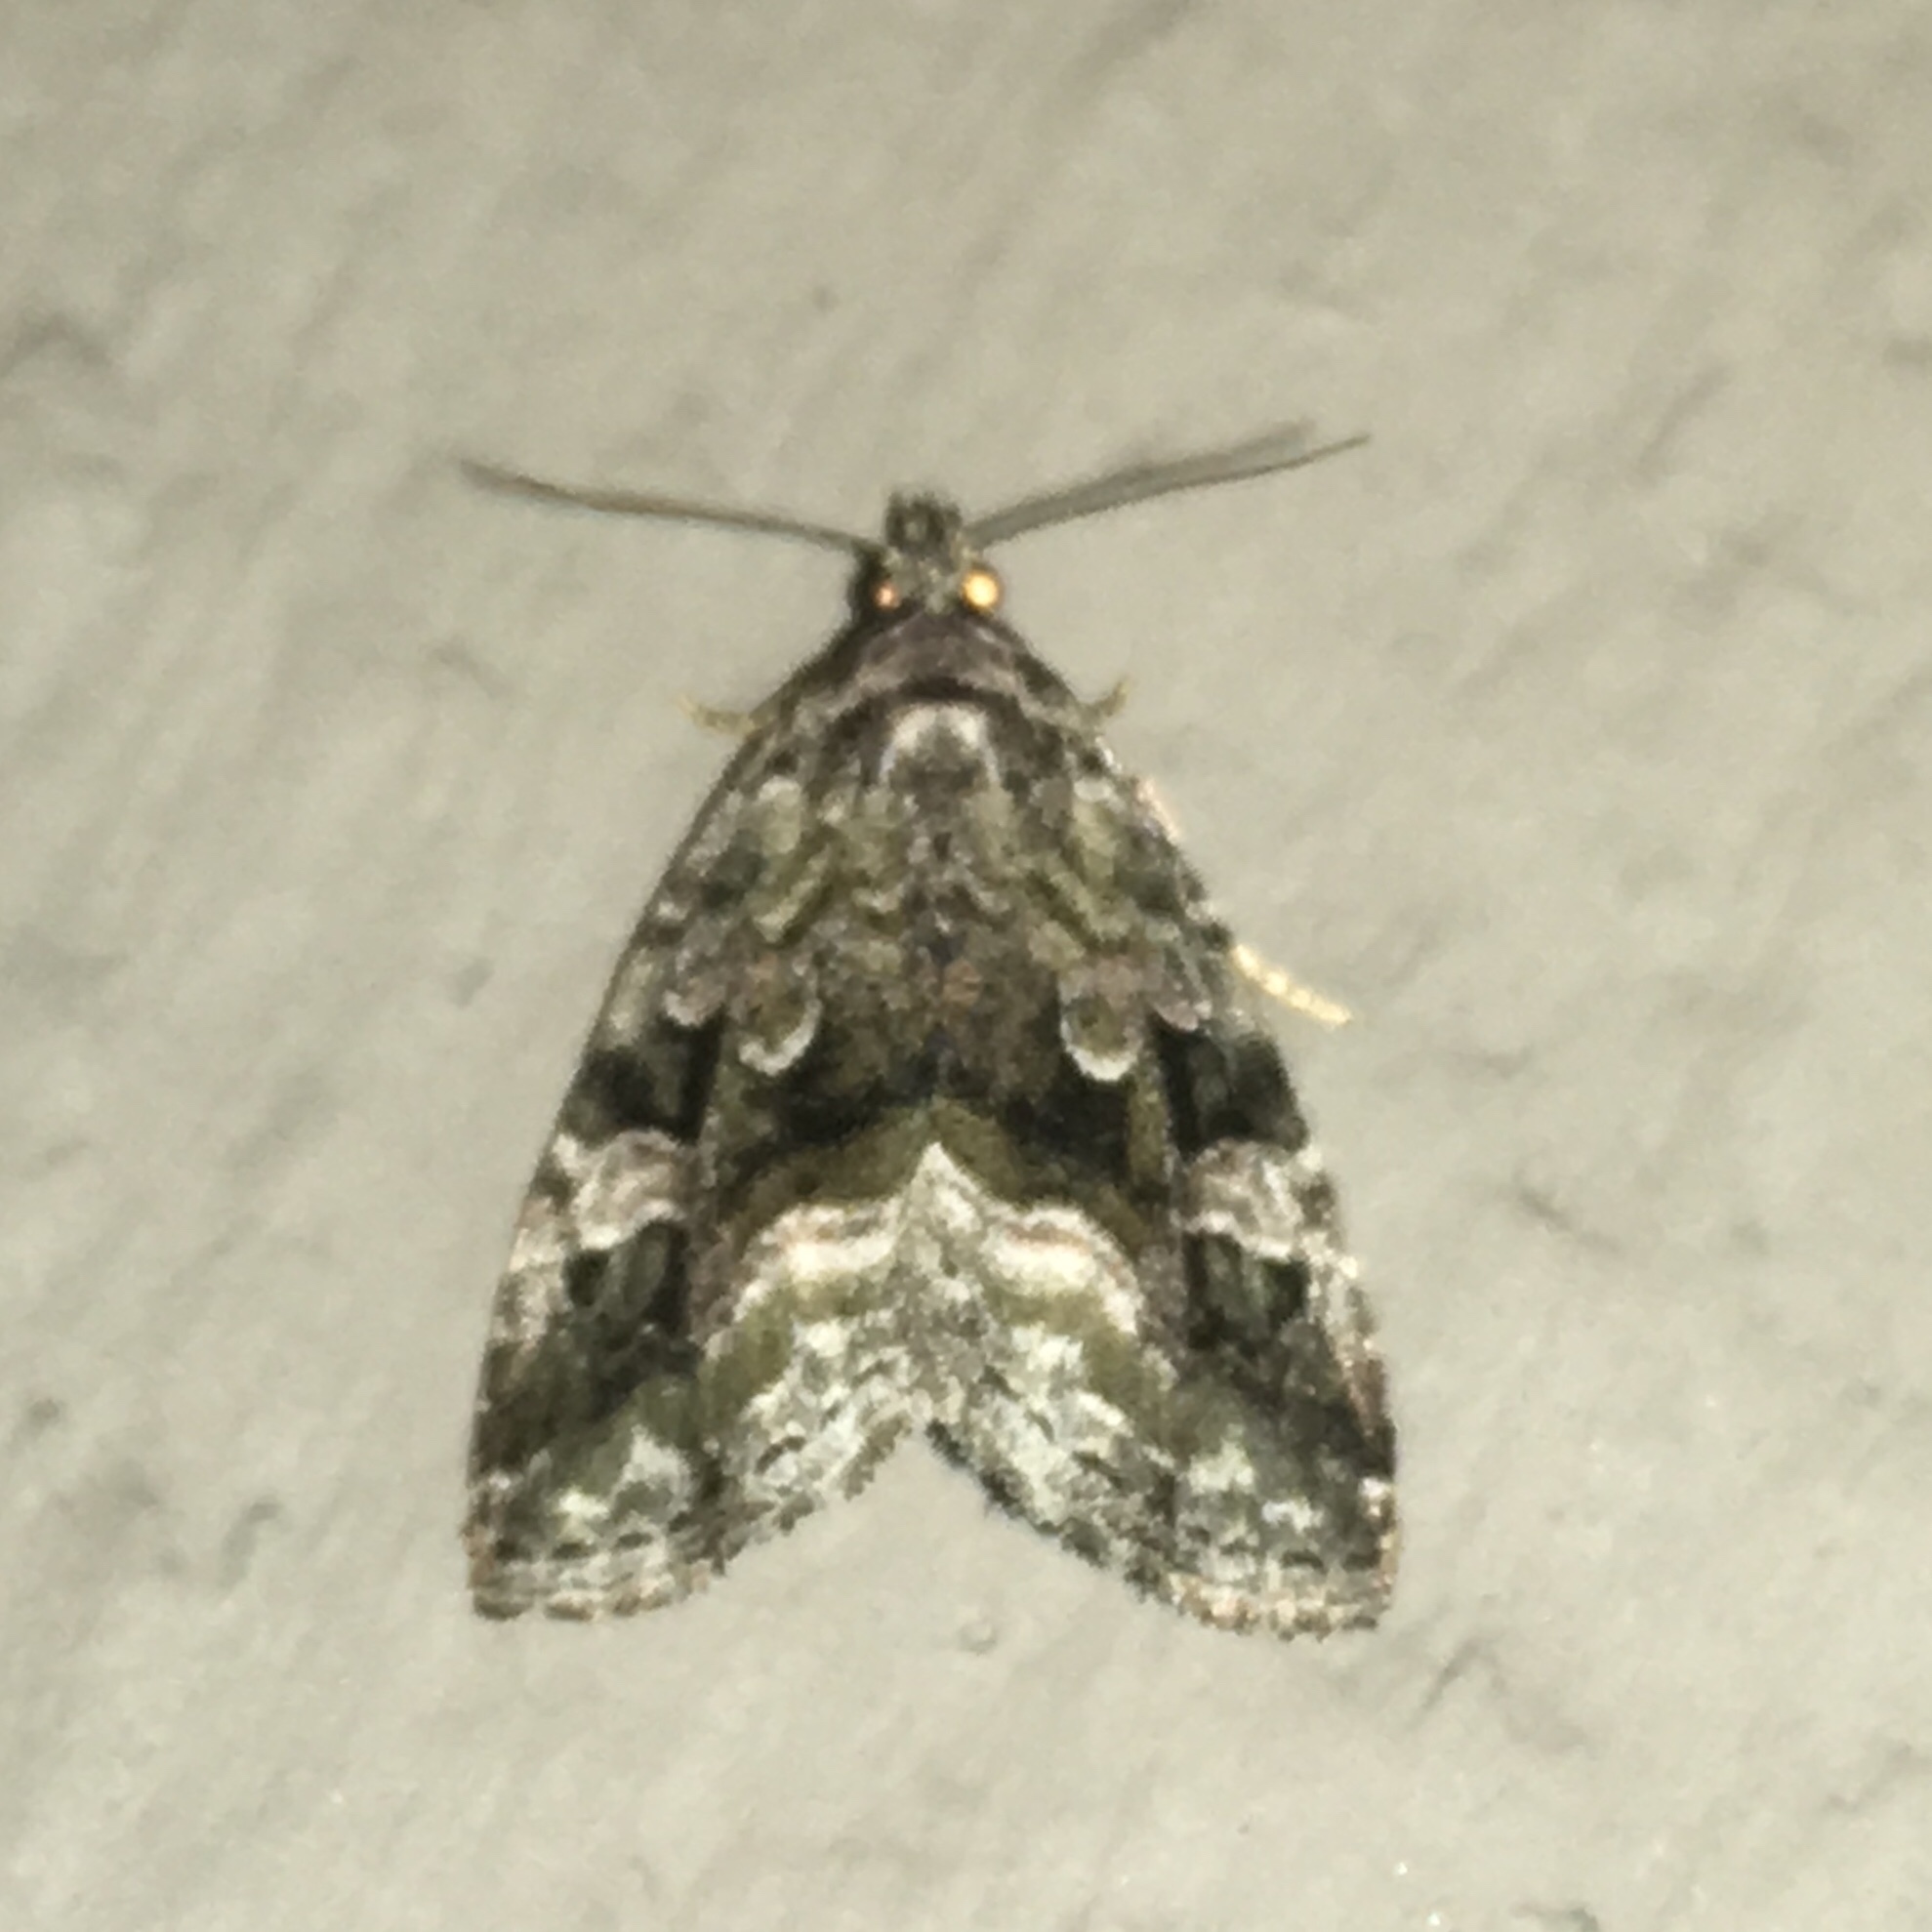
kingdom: Animalia
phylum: Arthropoda
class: Insecta
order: Lepidoptera
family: Noctuidae
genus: Protodeltote
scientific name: Protodeltote muscosula
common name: Large mossy glyph
